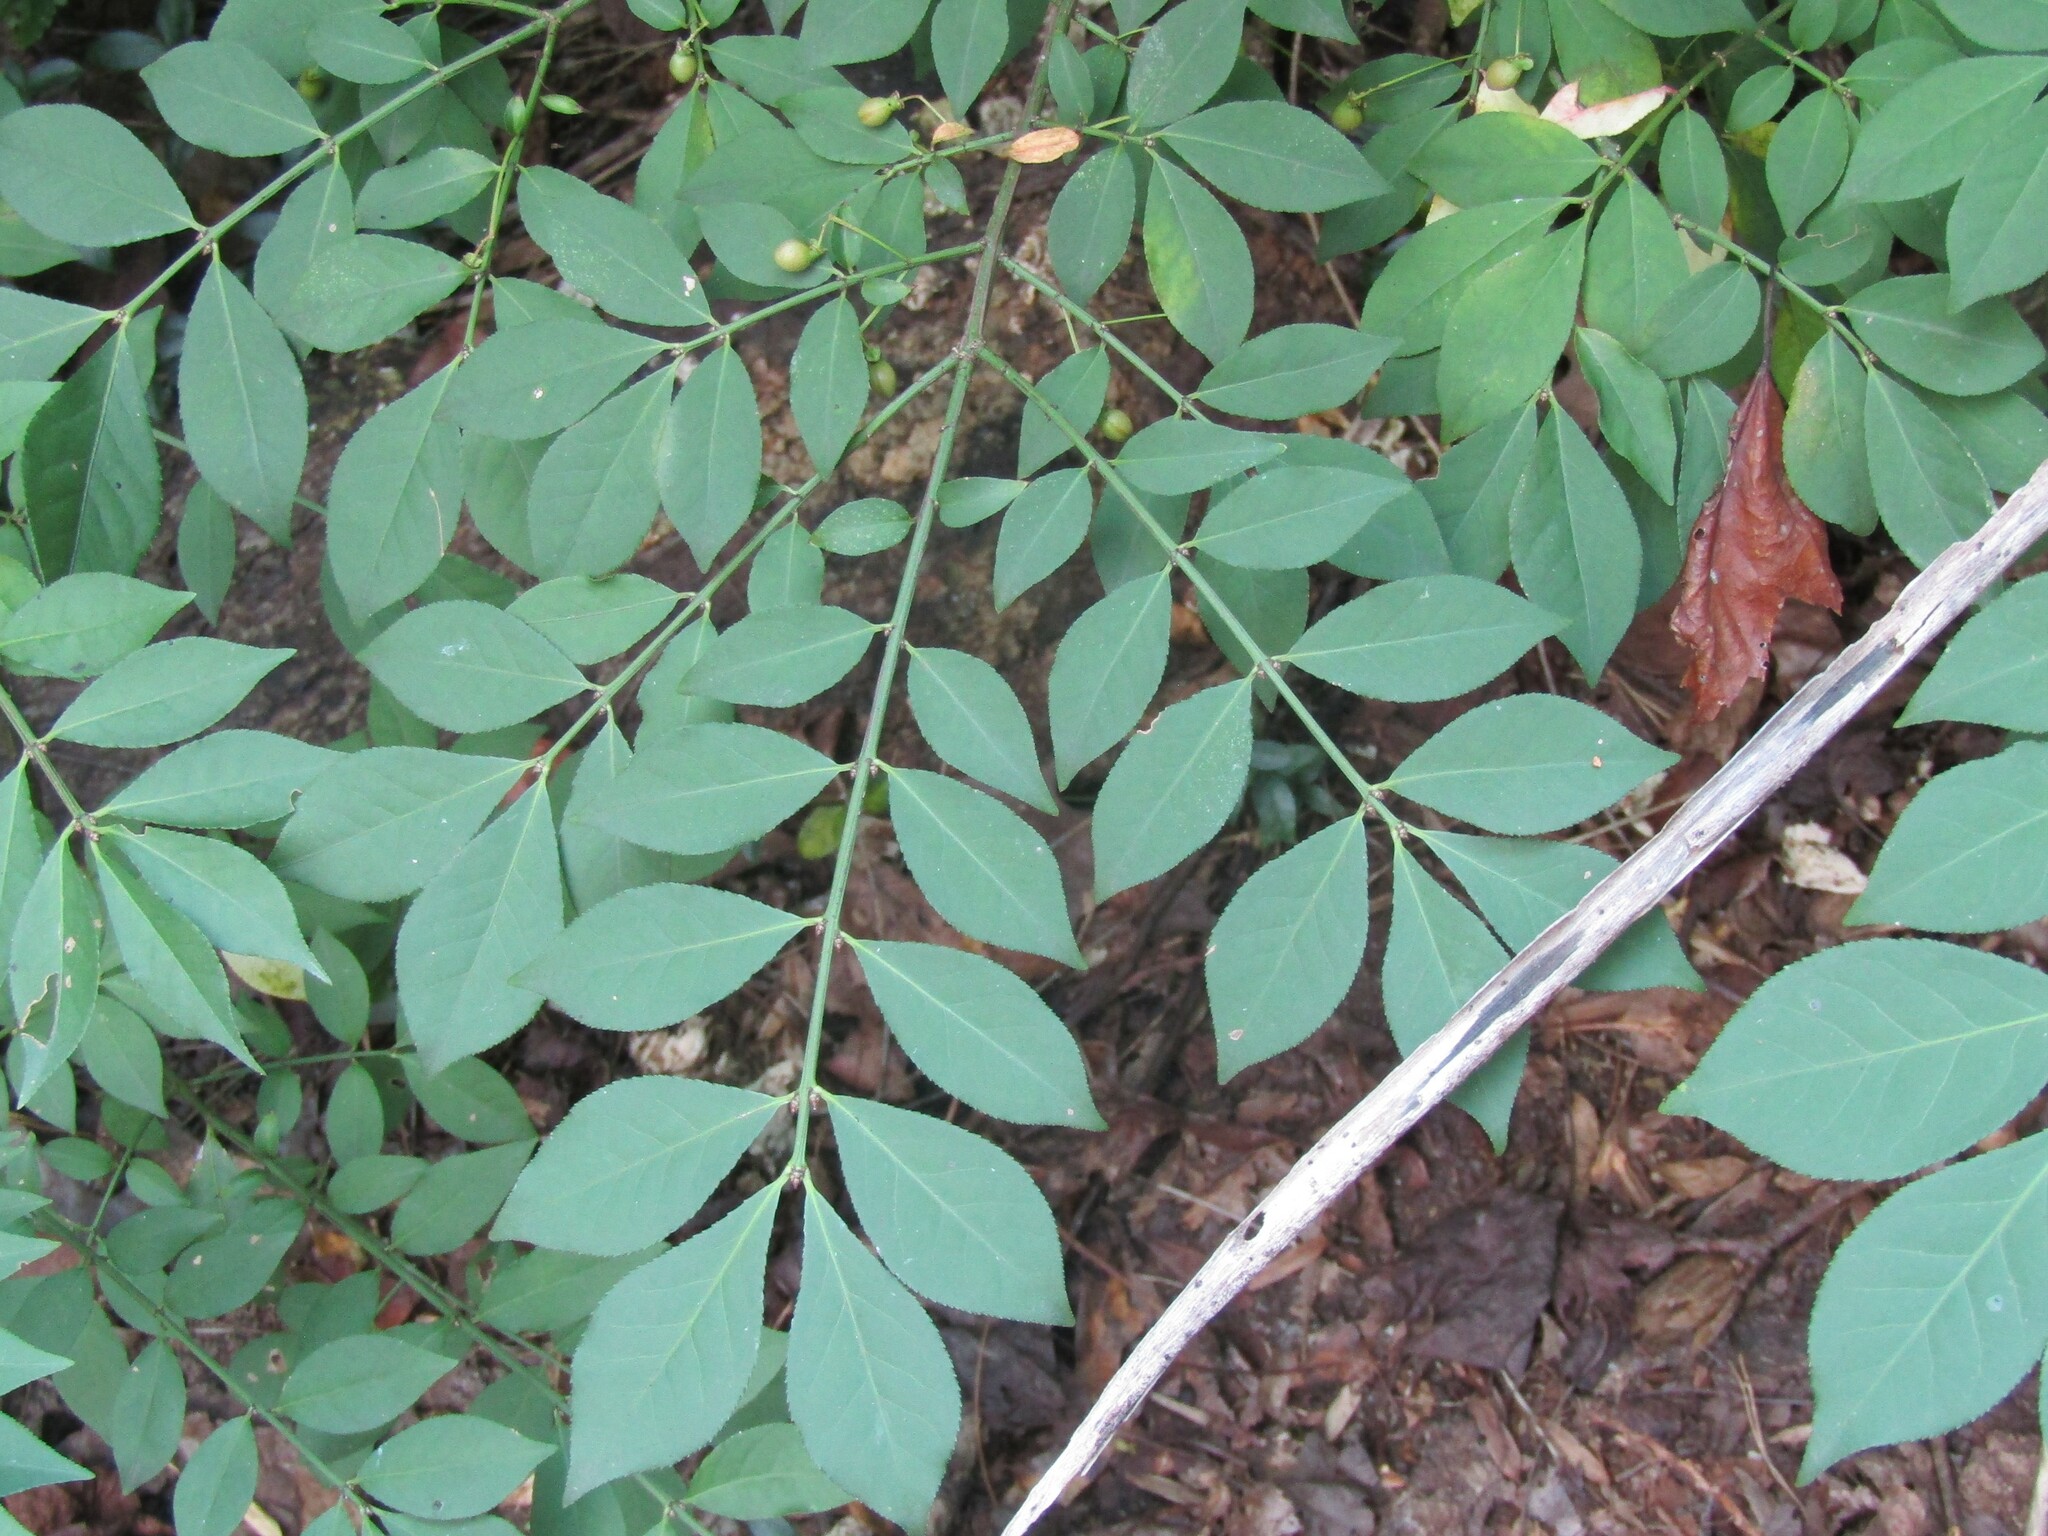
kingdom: Plantae
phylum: Tracheophyta
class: Magnoliopsida
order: Celastrales
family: Celastraceae
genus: Euonymus
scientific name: Euonymus alatus
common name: Winged euonymus
